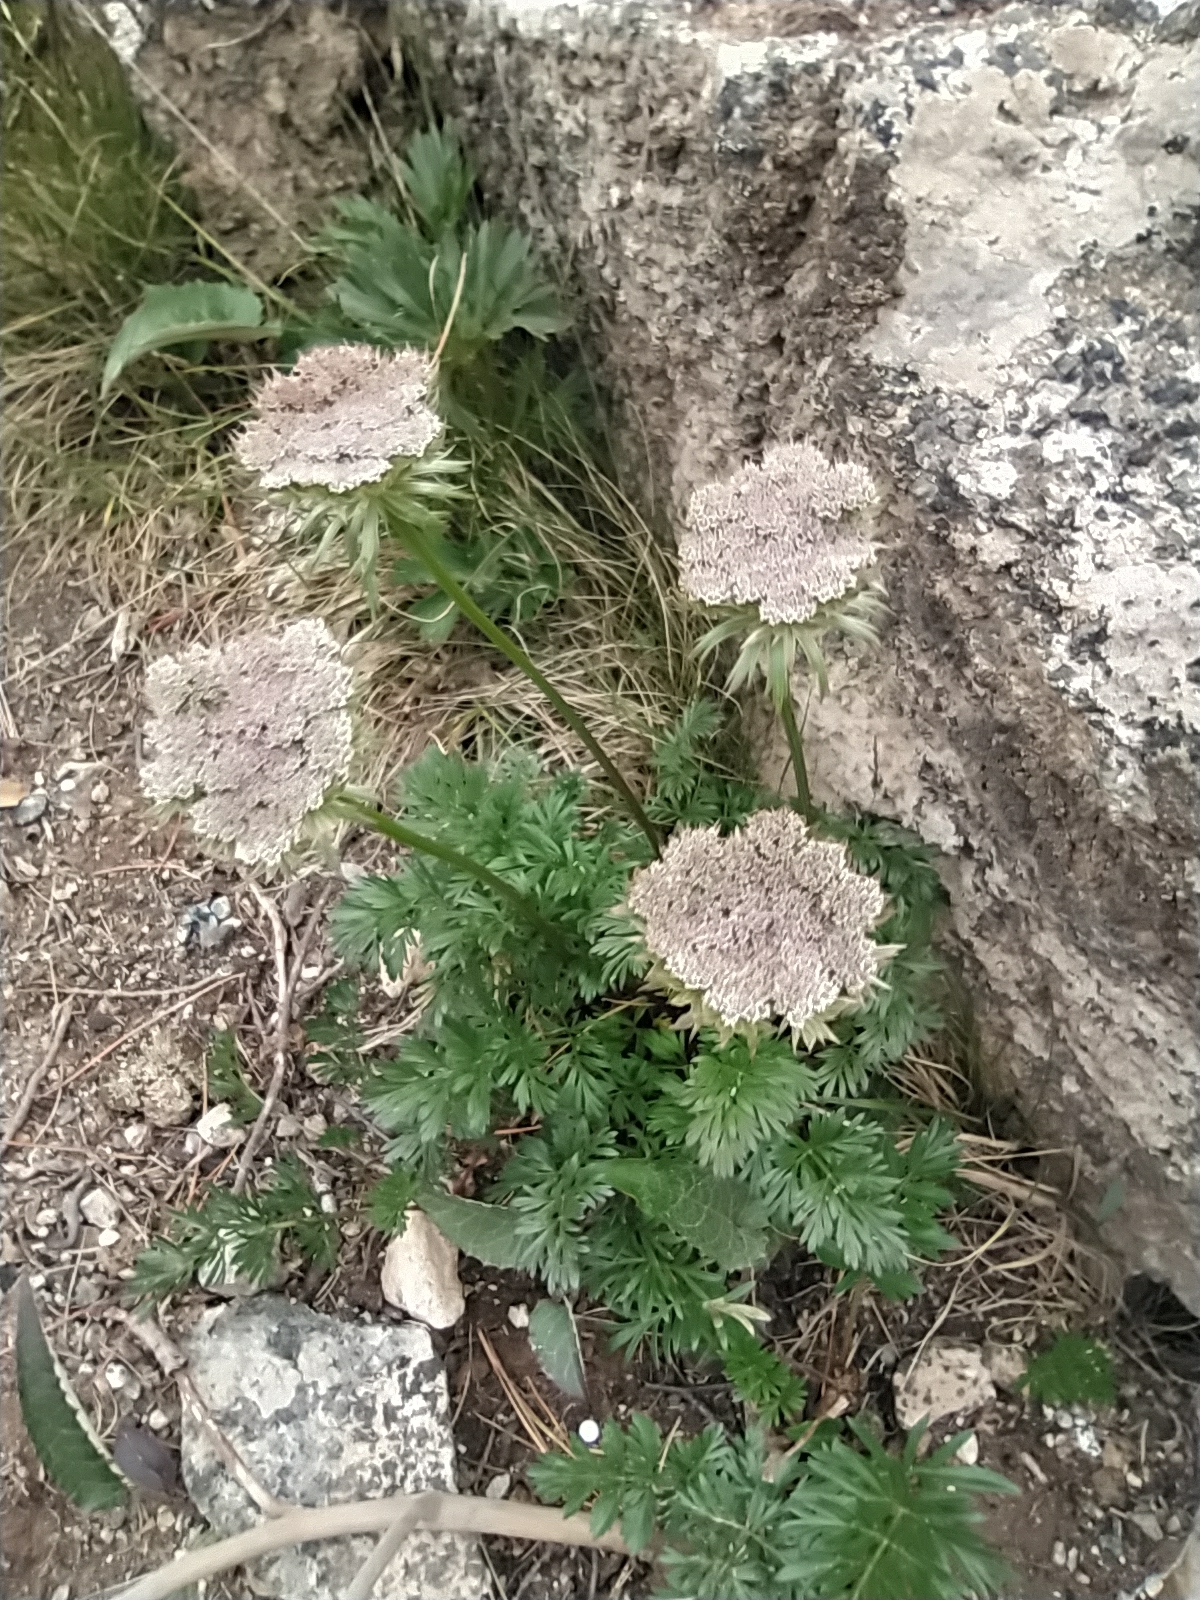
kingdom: Plantae
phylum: Tracheophyta
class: Magnoliopsida
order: Apiales
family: Apiaceae
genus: Pachypleurum
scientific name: Pachypleurum mutellinoides
